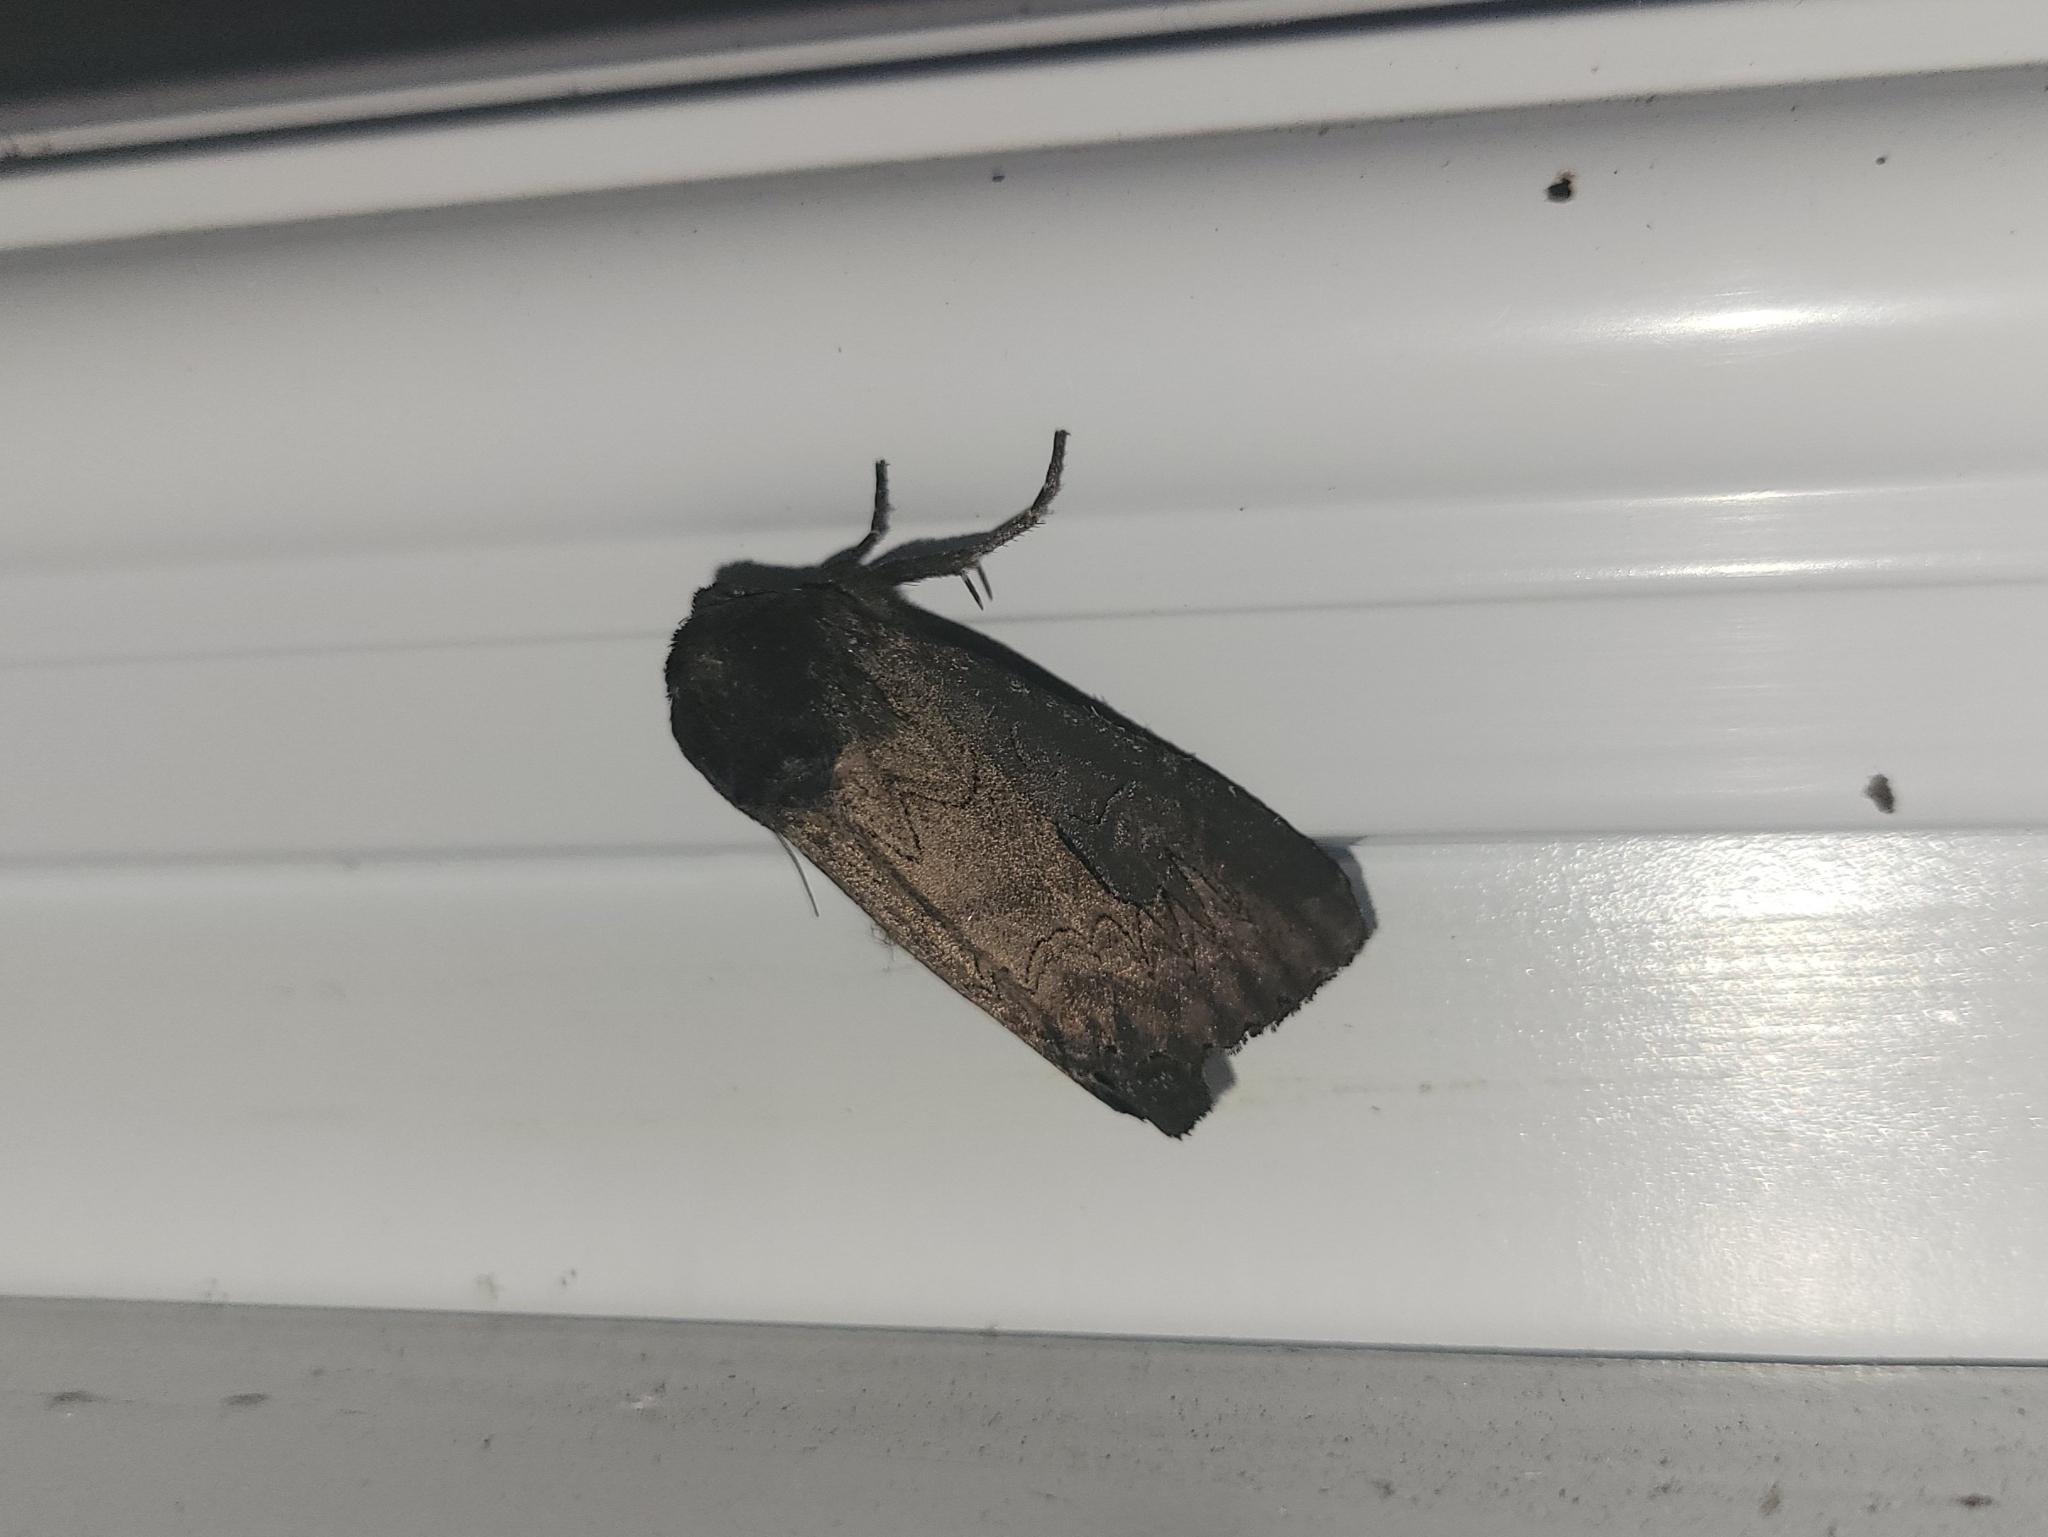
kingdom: Animalia
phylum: Arthropoda
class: Insecta
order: Lepidoptera
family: Noctuidae
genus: Macronoctua
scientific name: Macronoctua onusta
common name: Iris borer
